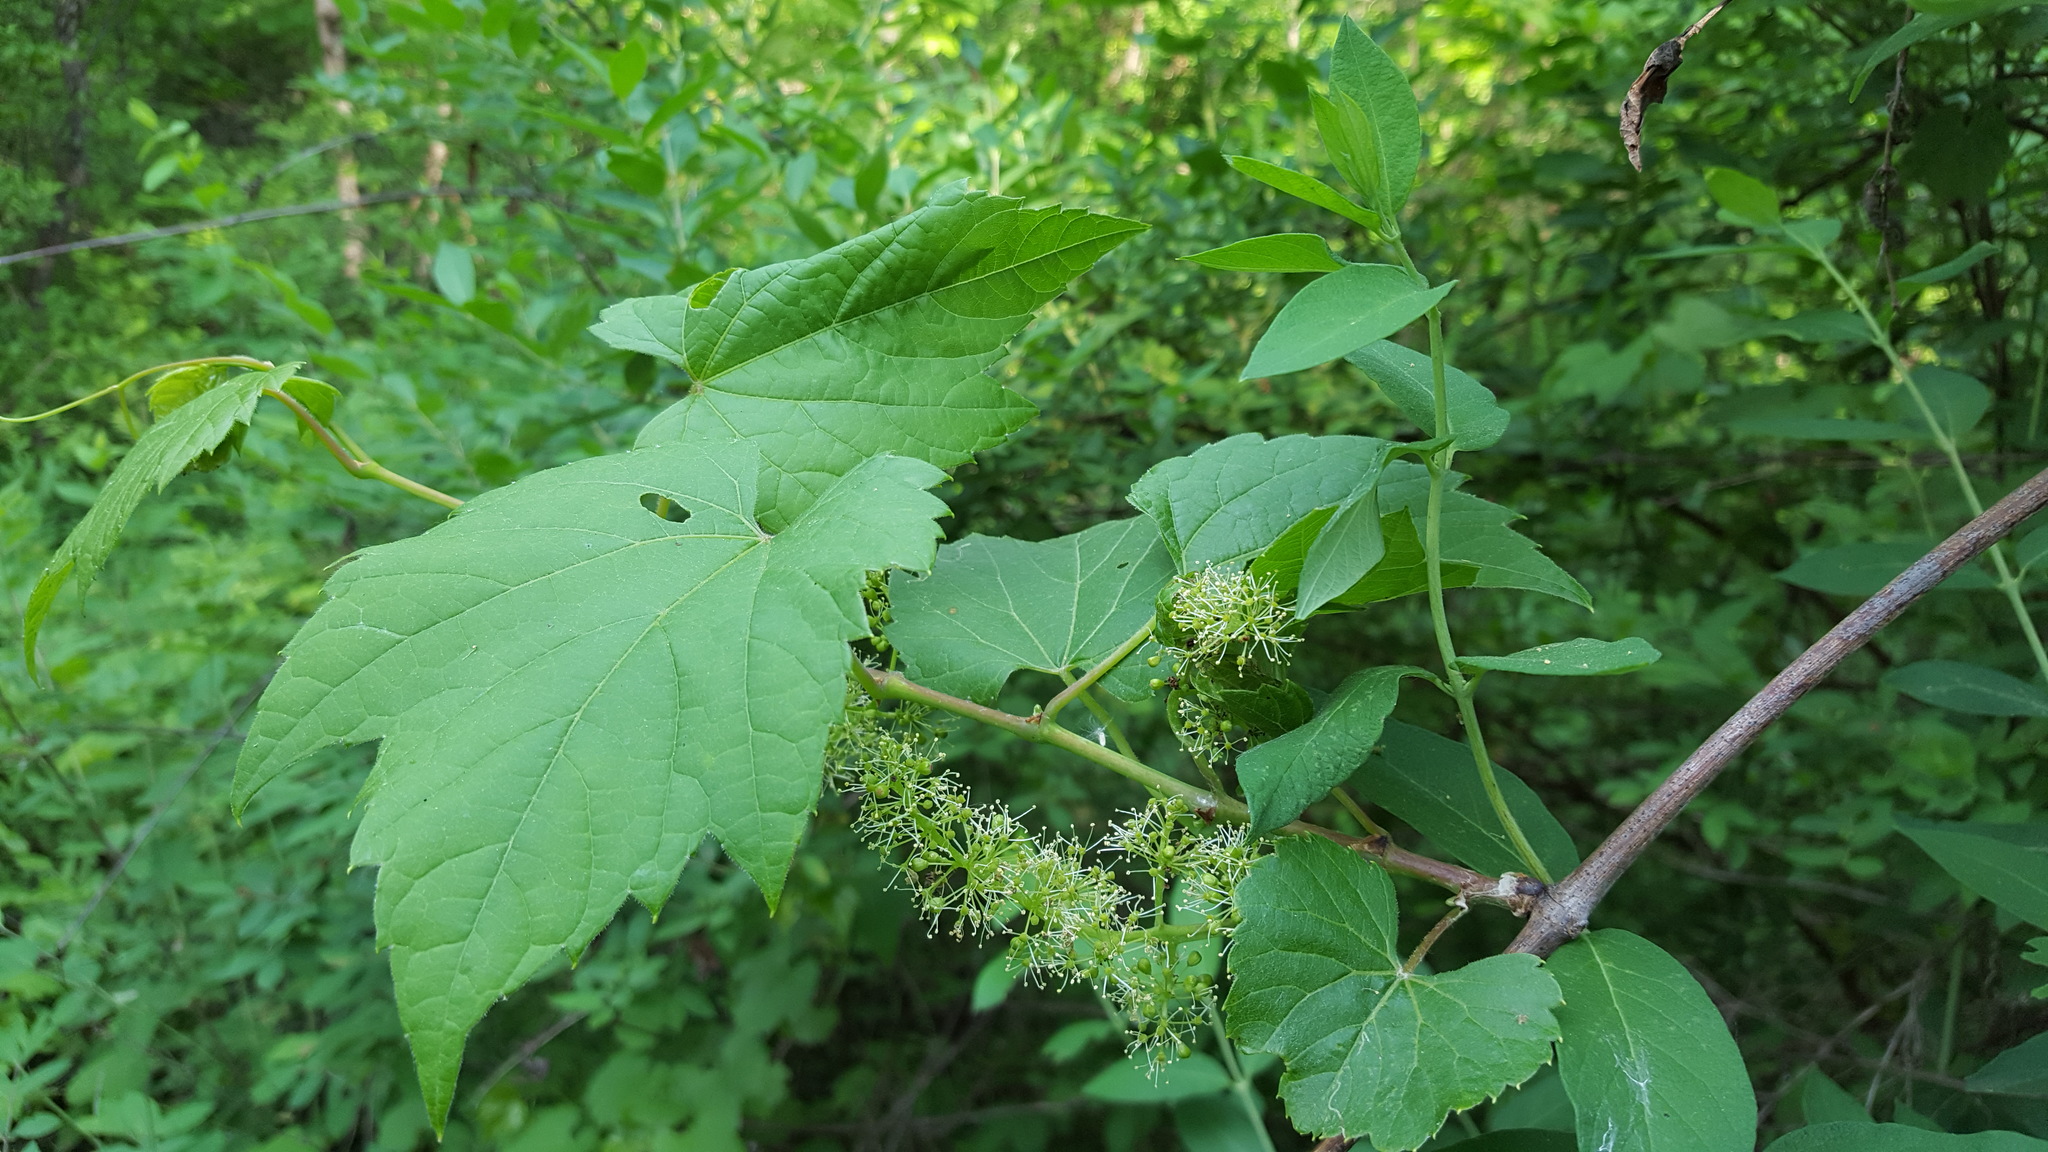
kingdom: Plantae
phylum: Tracheophyta
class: Magnoliopsida
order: Vitales
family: Vitaceae
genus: Vitis
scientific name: Vitis riparia
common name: Frost grape
